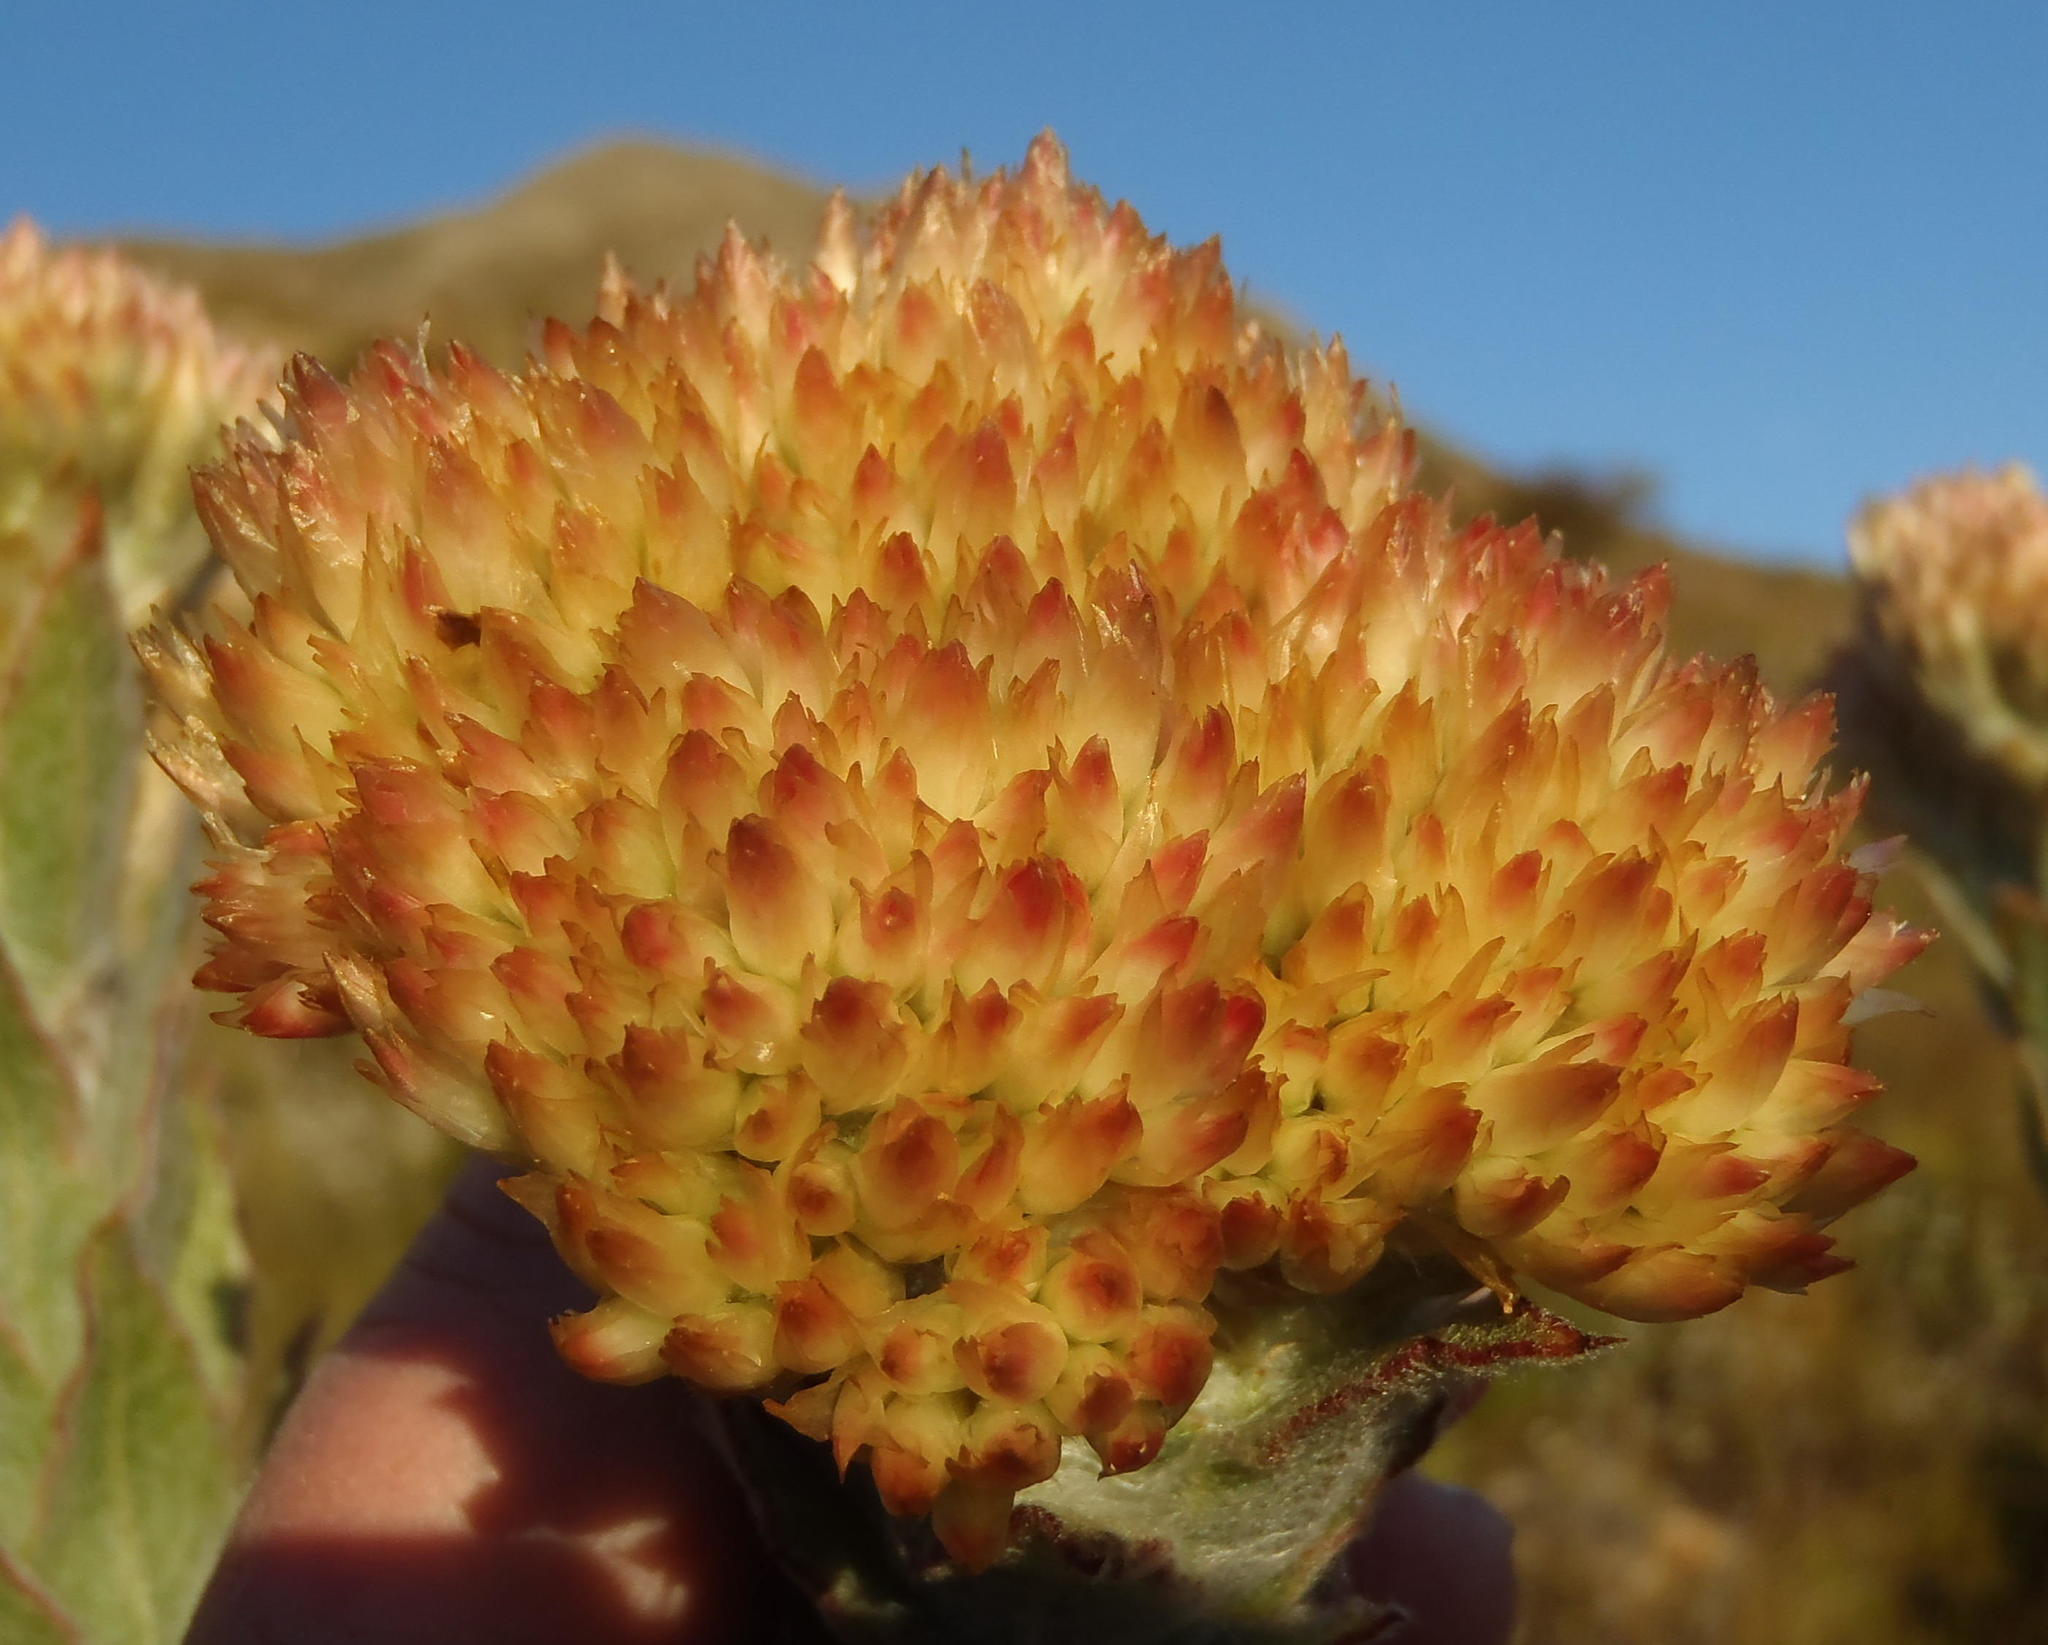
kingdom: Plantae
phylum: Tracheophyta
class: Magnoliopsida
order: Asterales
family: Asteraceae
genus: Syncarpha
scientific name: Syncarpha milleflora
